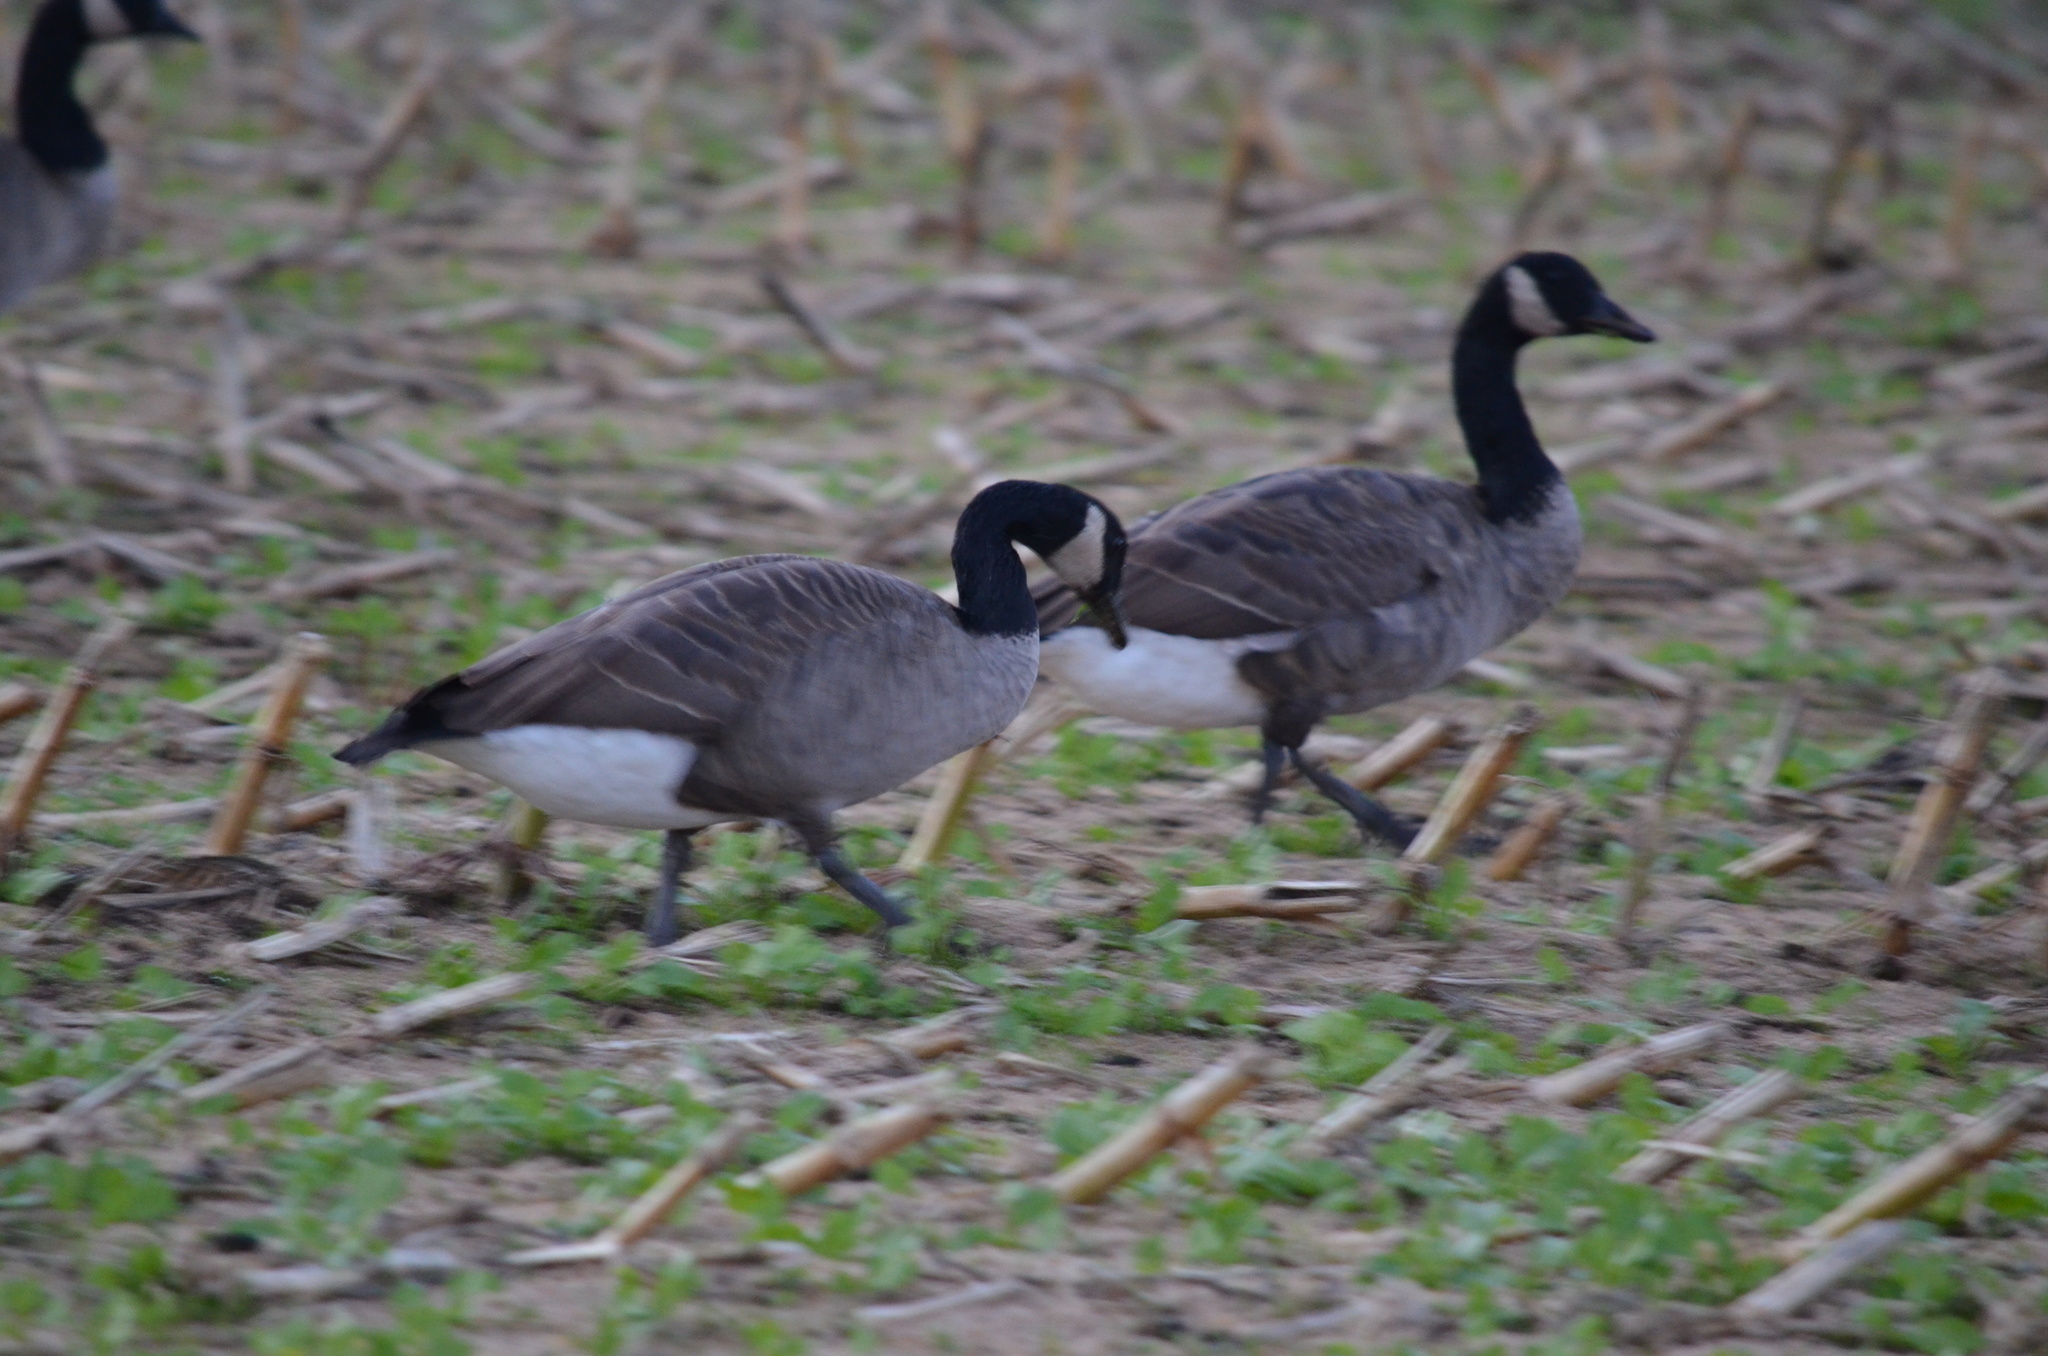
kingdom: Animalia
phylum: Chordata
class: Aves
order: Anseriformes
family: Anatidae
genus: Branta
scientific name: Branta canadensis
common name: Canada goose
